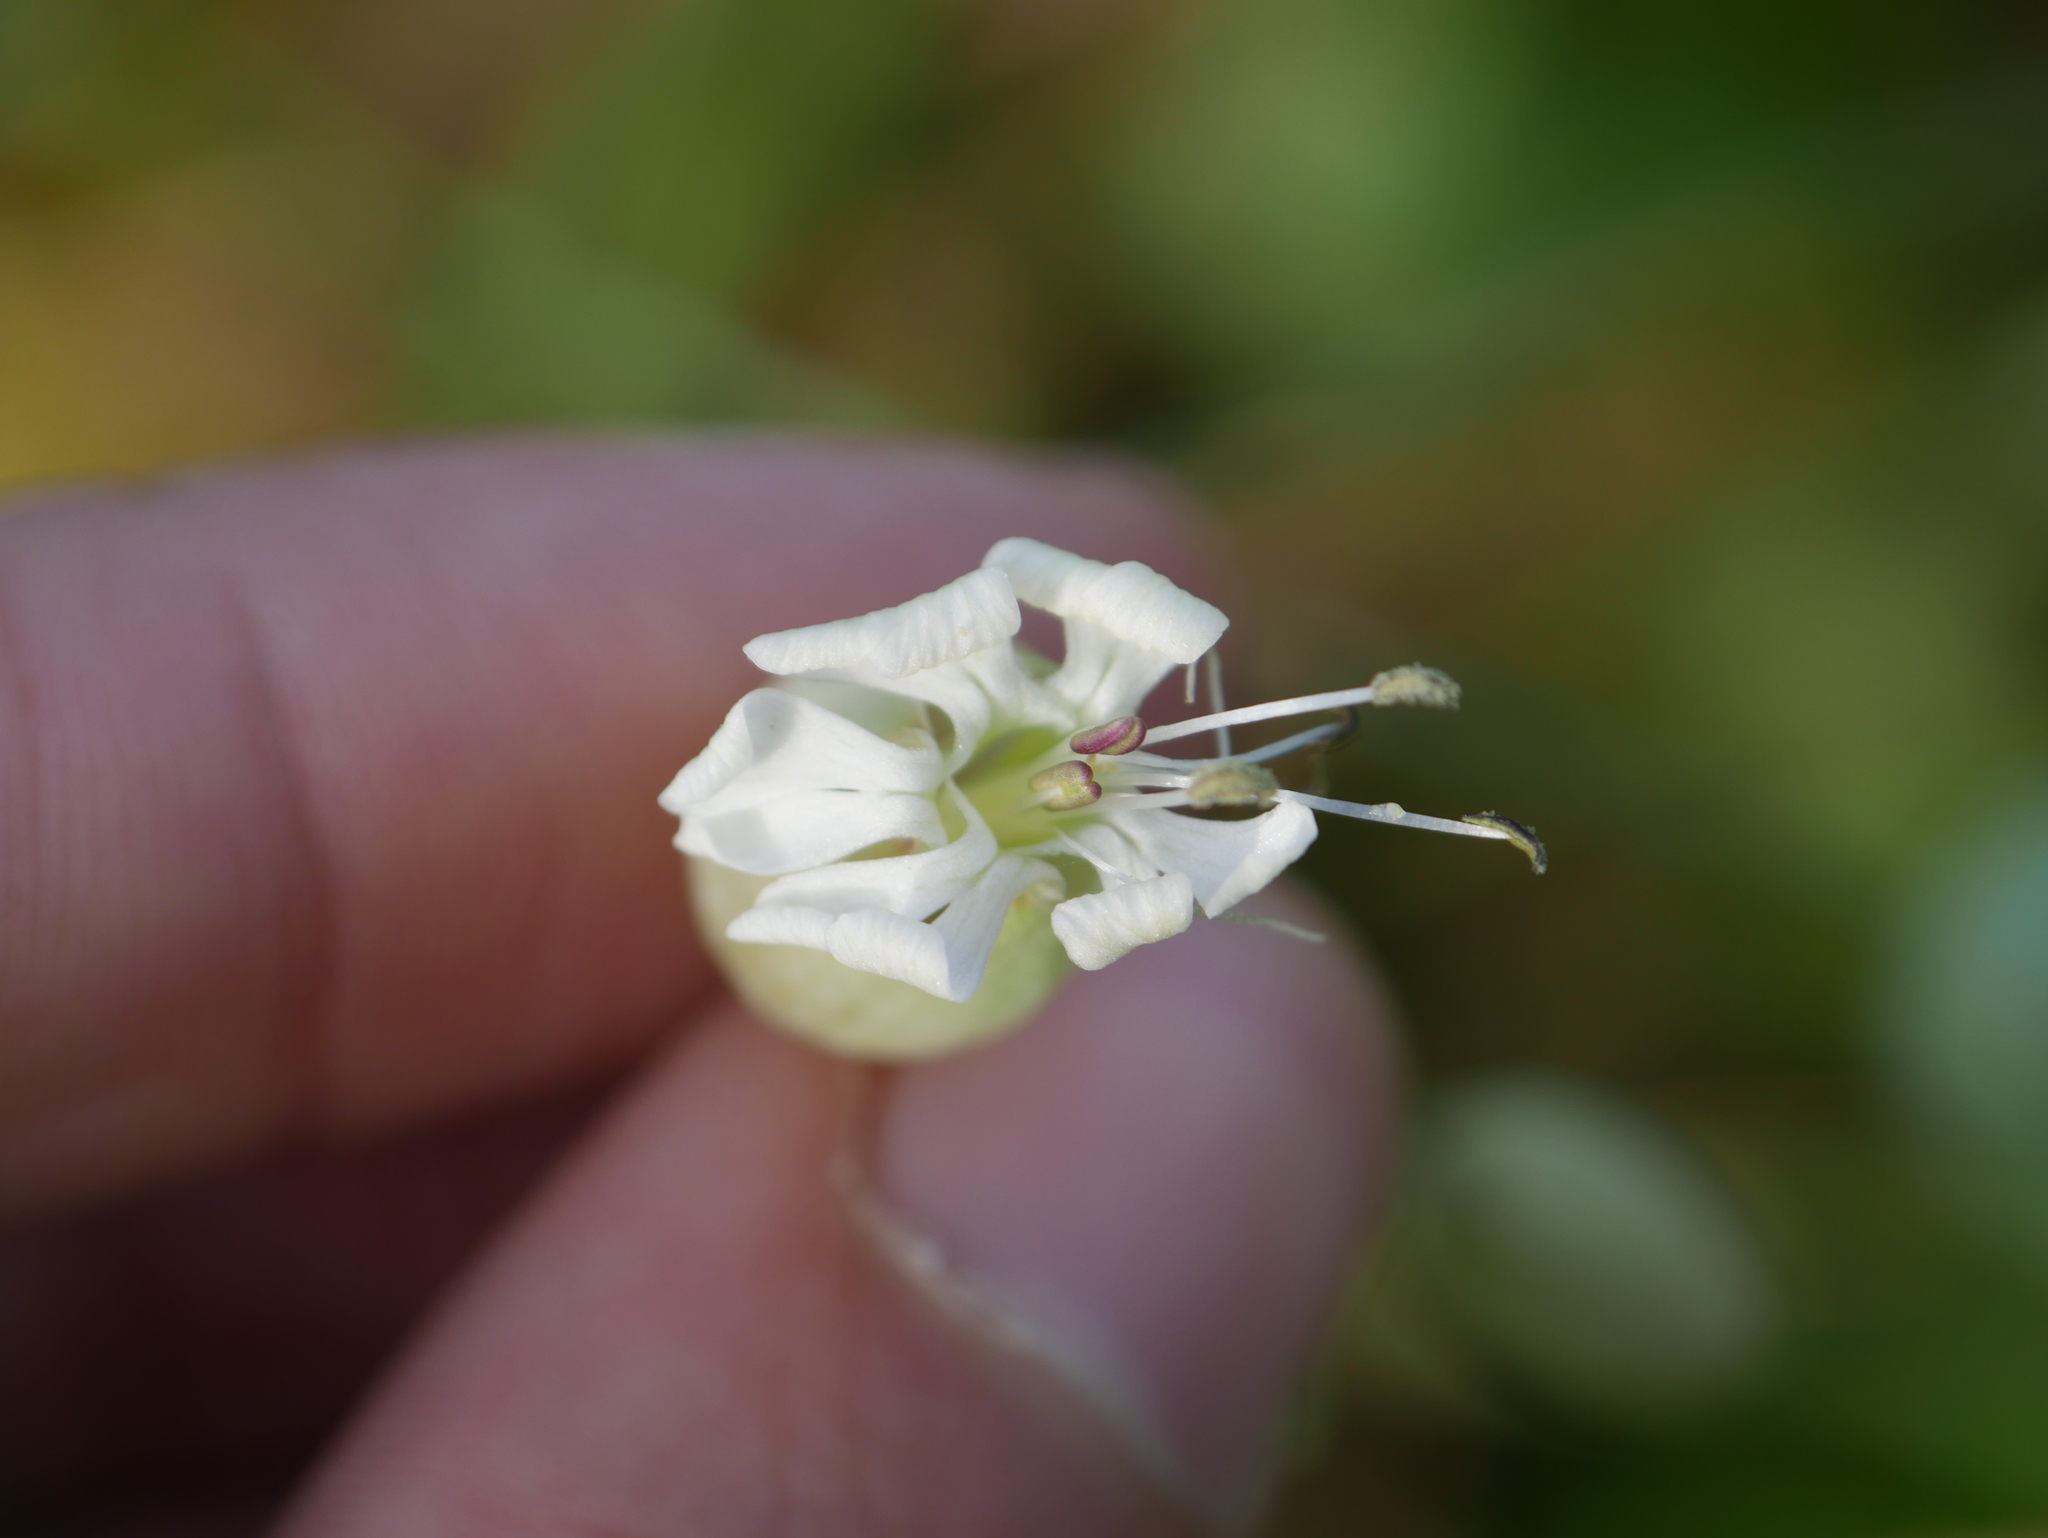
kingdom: Plantae
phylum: Tracheophyta
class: Magnoliopsida
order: Caryophyllales
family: Caryophyllaceae
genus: Silene
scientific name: Silene vulgaris
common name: Bladder campion
